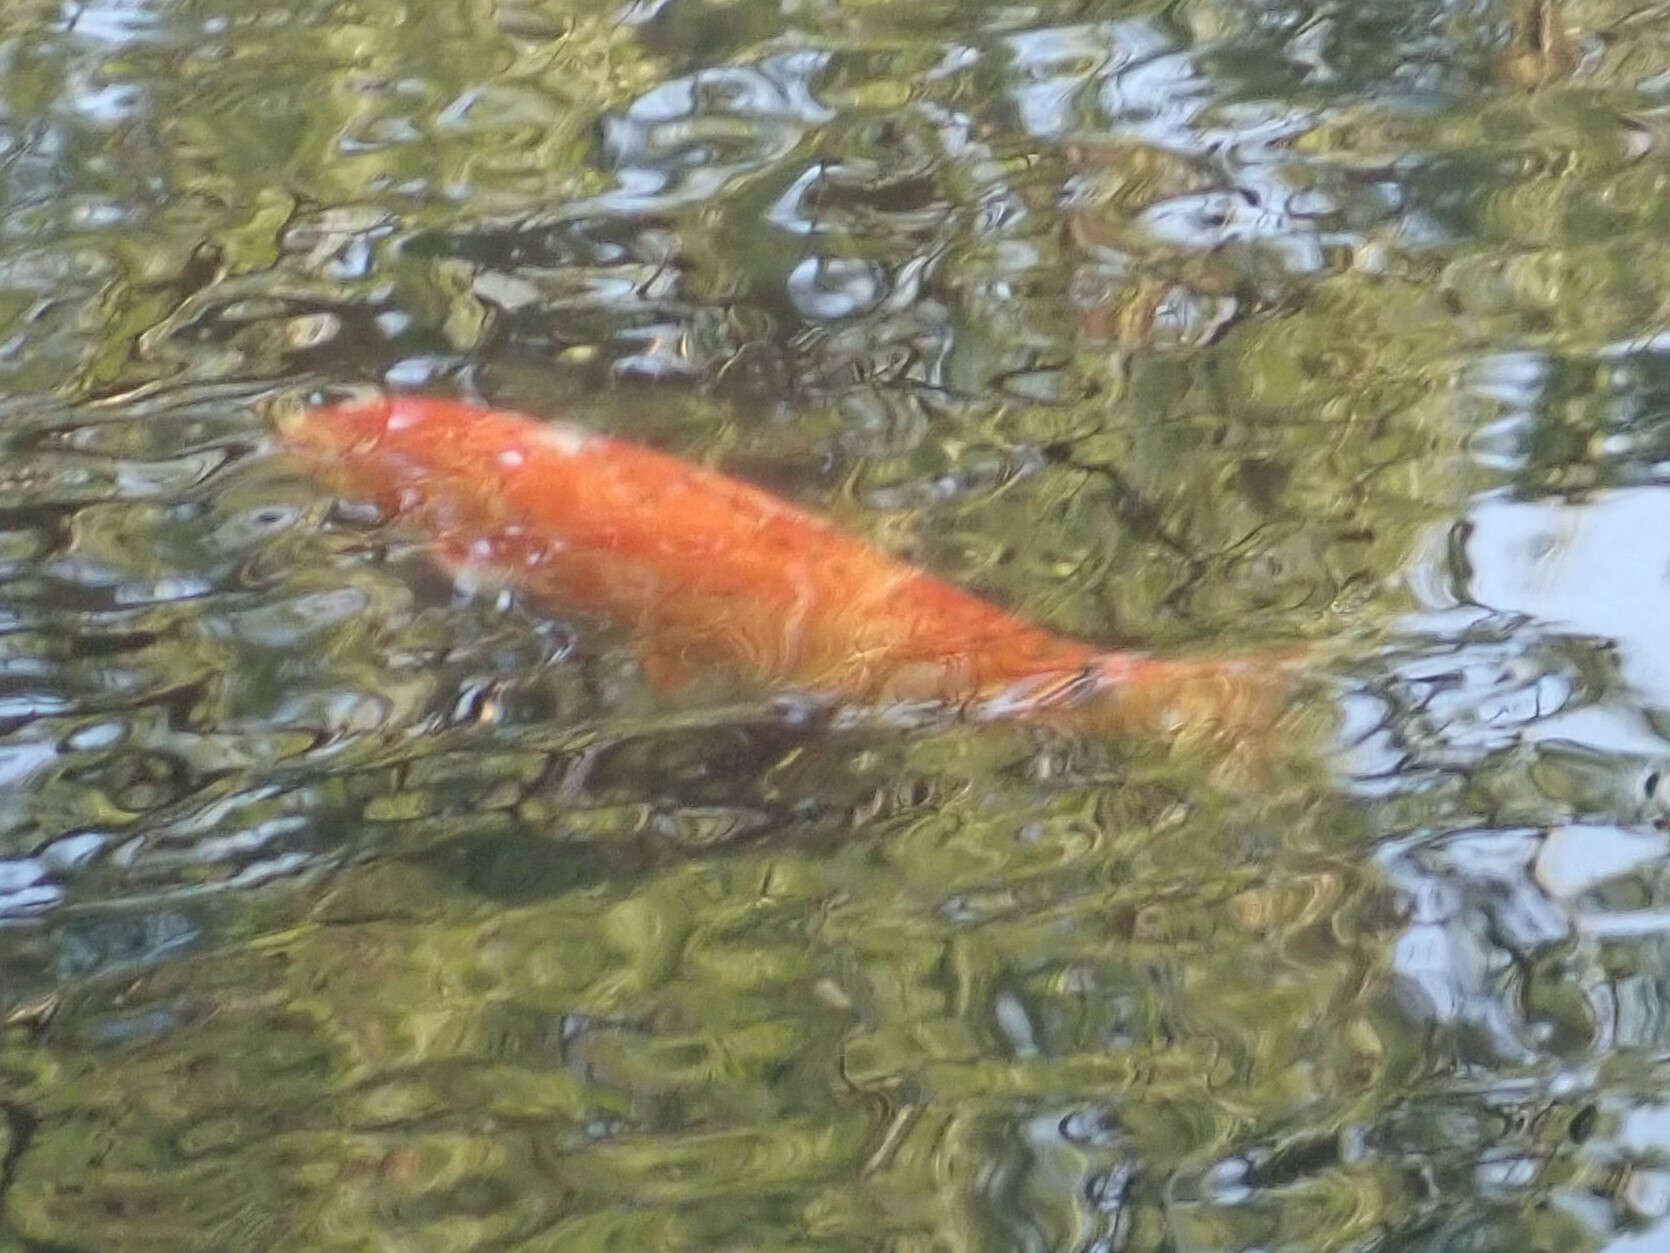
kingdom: Animalia
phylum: Chordata
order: Cypriniformes
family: Cyprinidae
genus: Cyprinus
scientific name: Cyprinus rubrofuscus
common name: Koi
